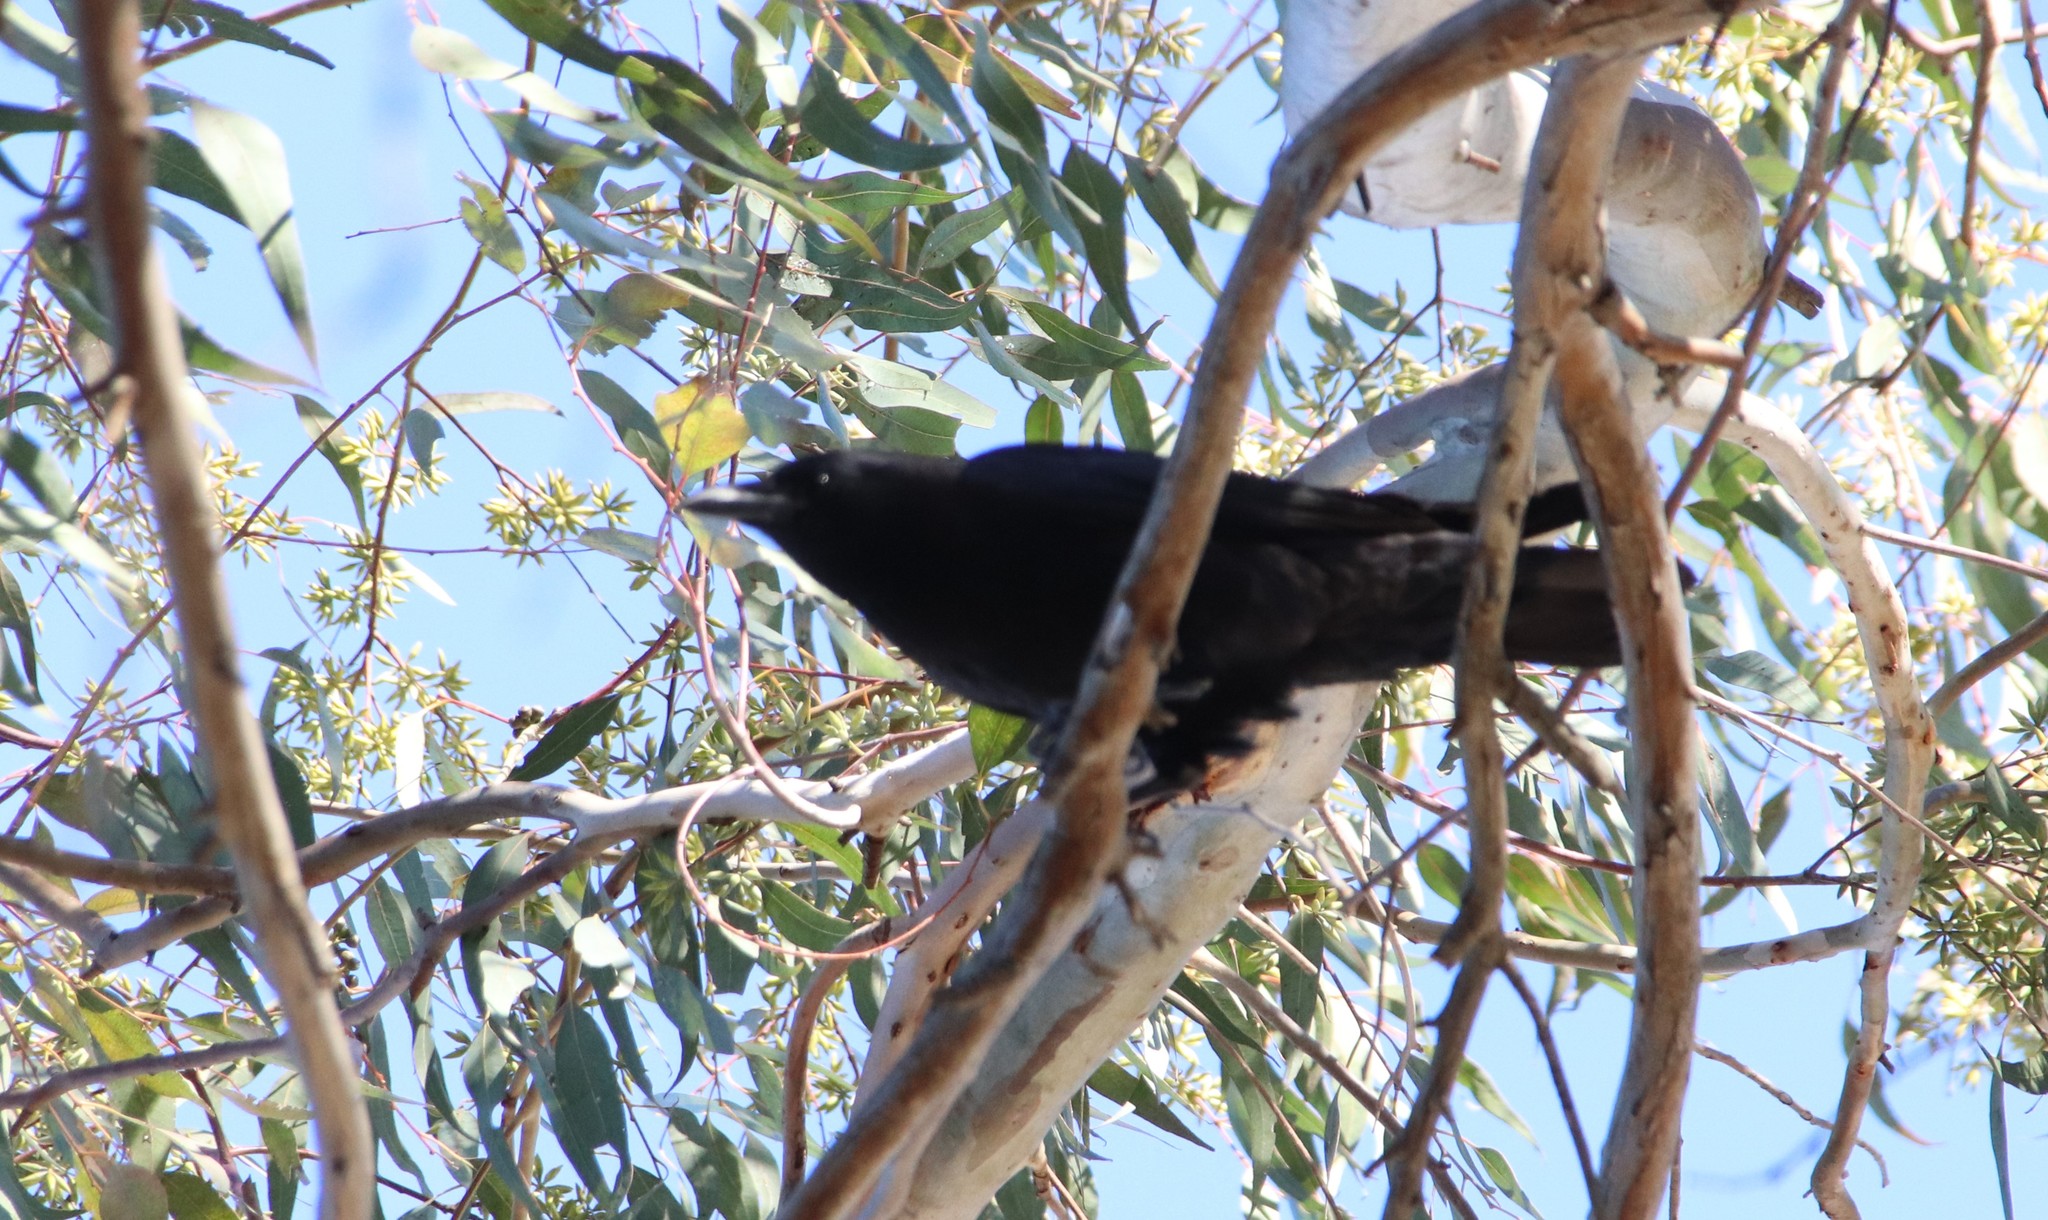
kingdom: Animalia
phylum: Chordata
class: Aves
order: Passeriformes
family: Corvidae
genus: Corvus
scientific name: Corvus brachyrhynchos
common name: American crow
